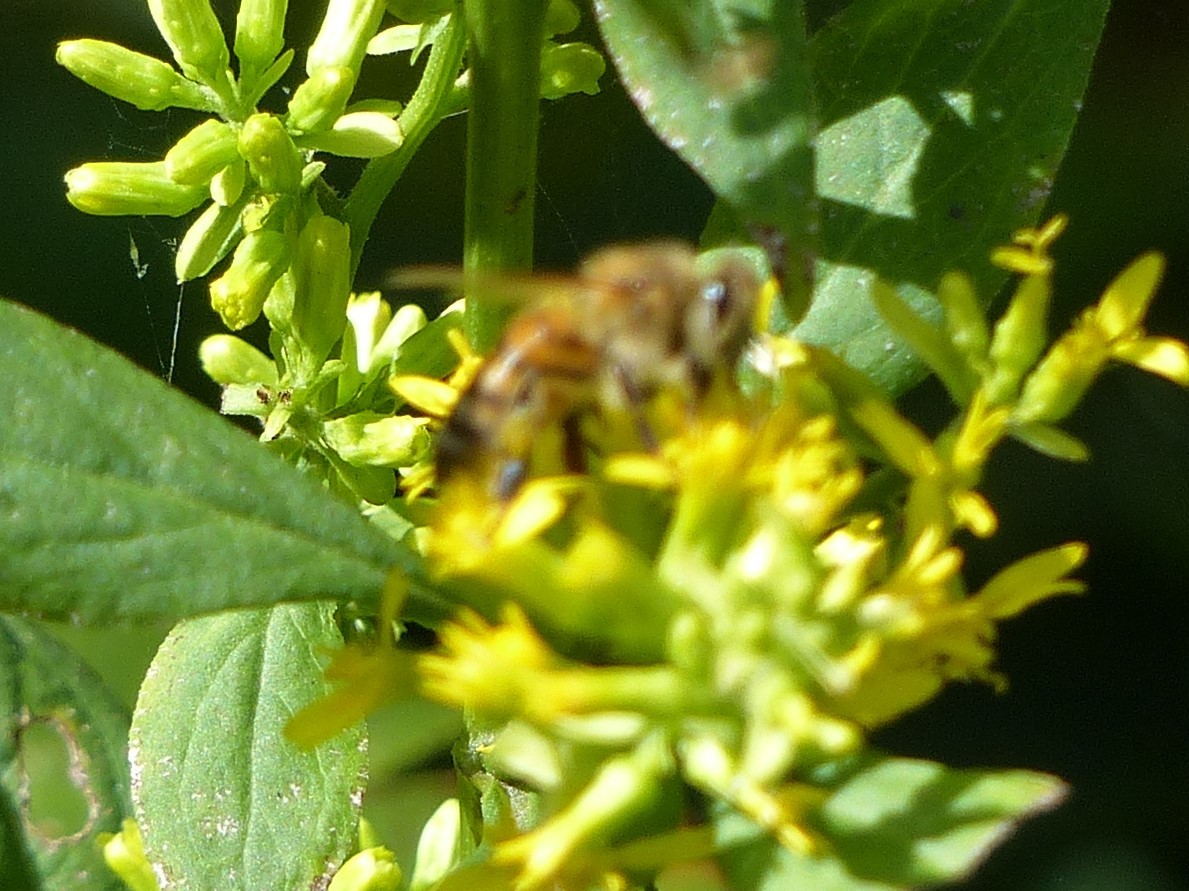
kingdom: Animalia
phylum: Arthropoda
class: Insecta
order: Hymenoptera
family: Apidae
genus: Apis
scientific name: Apis mellifera
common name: Honey bee
